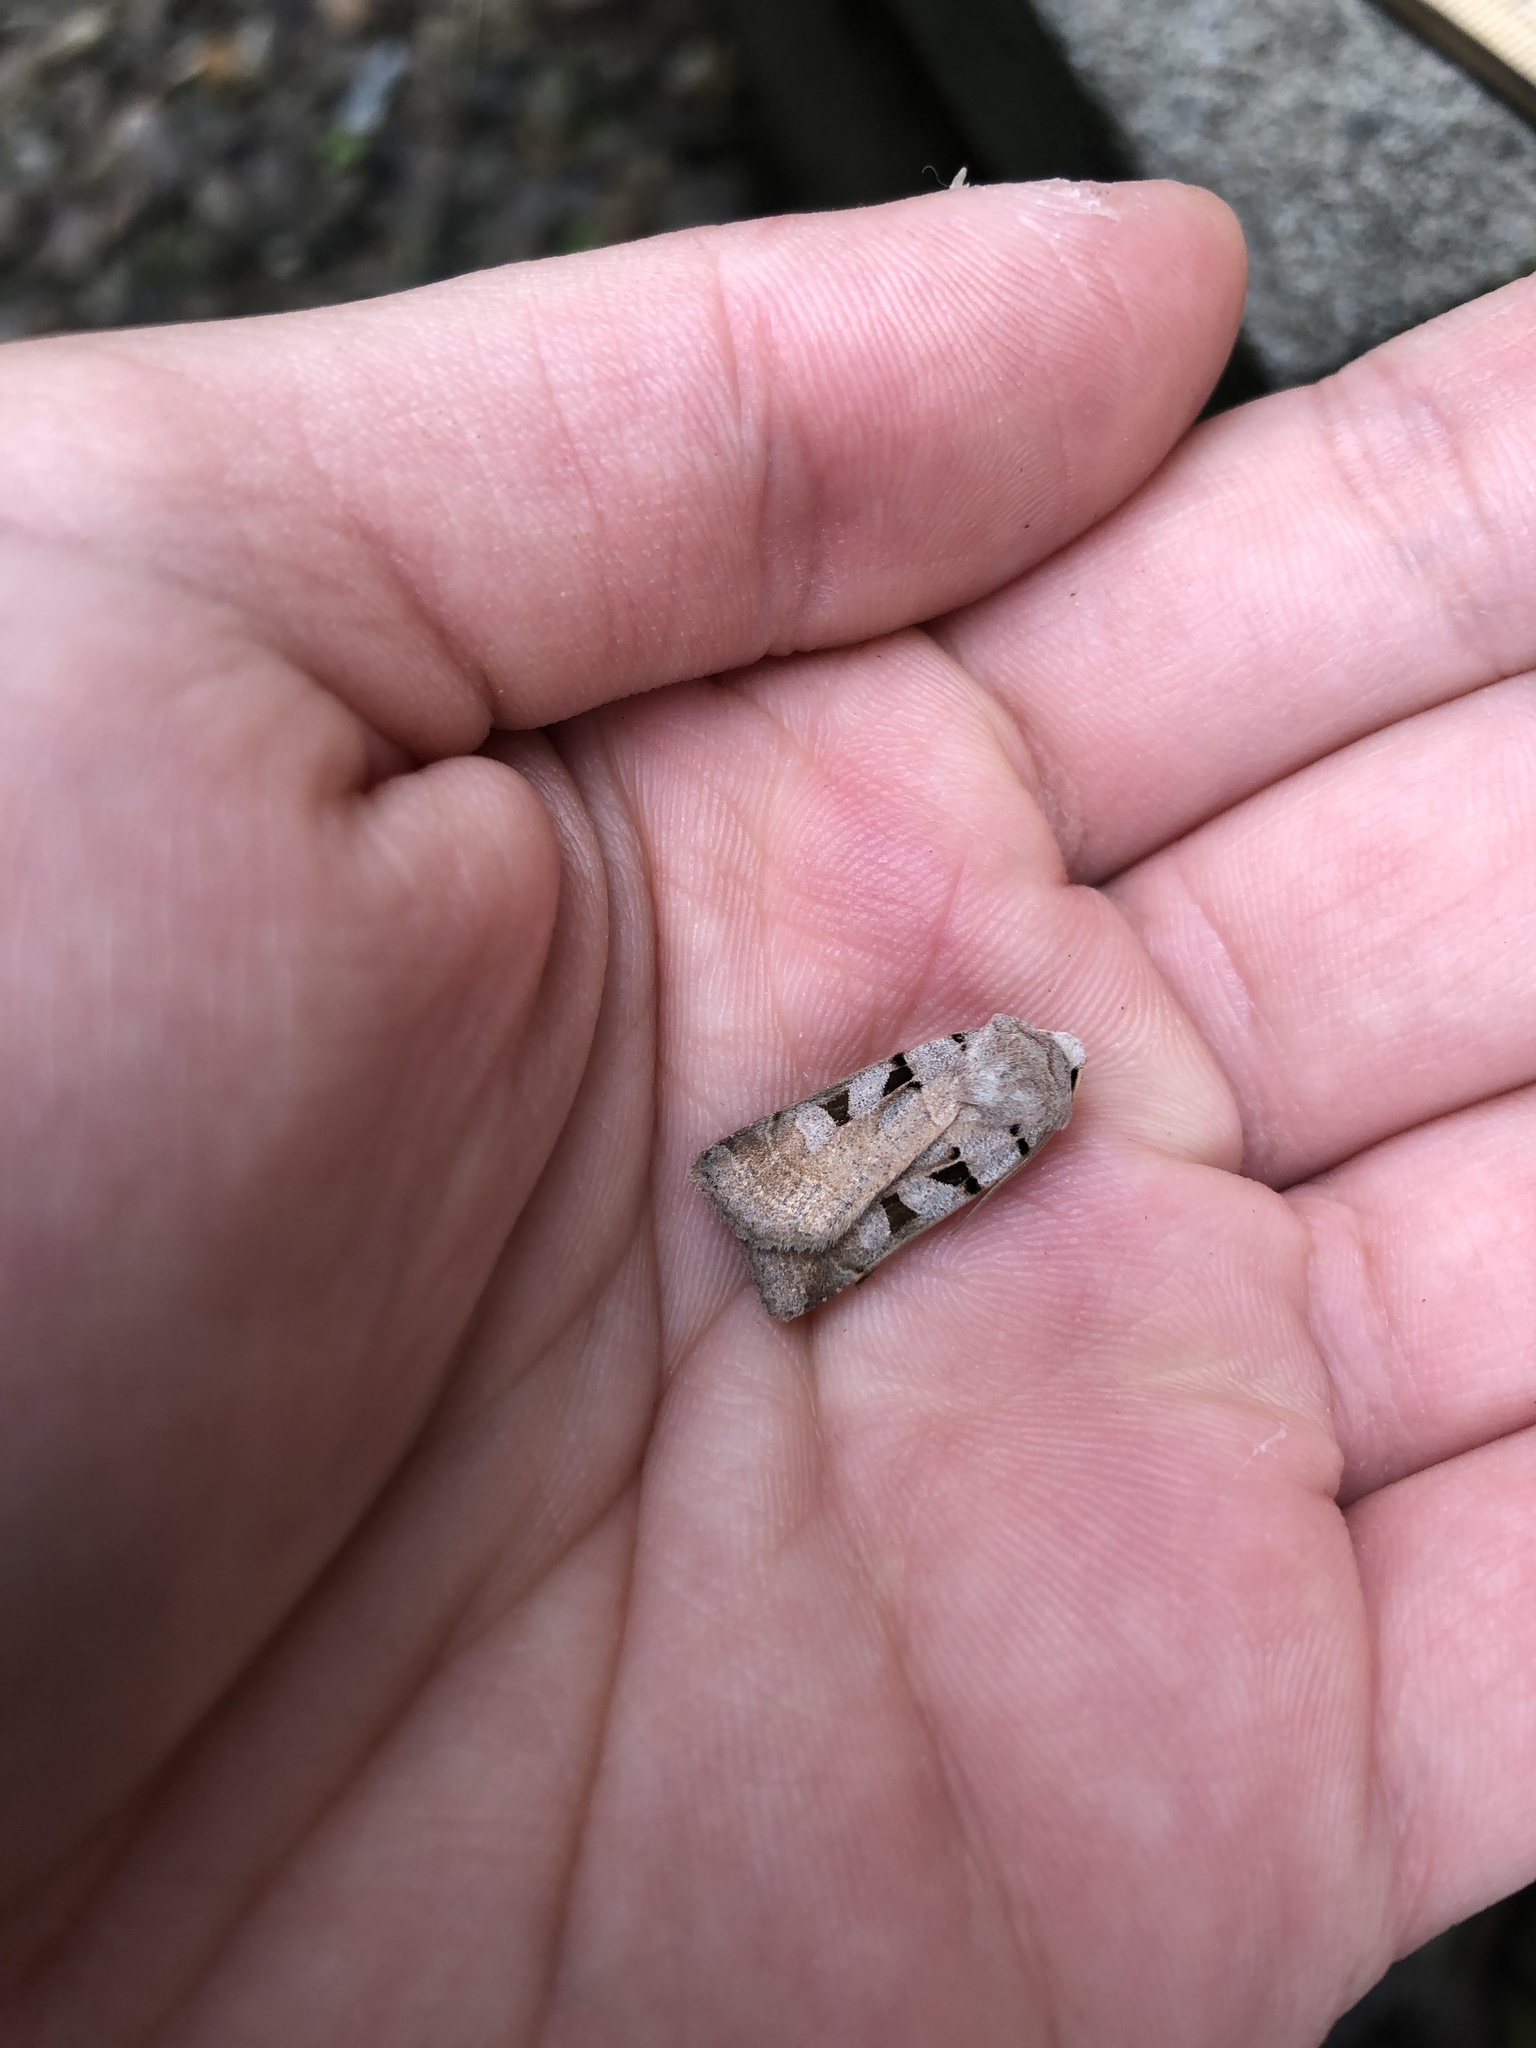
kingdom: Animalia
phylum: Arthropoda
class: Insecta
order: Lepidoptera
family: Noctuidae
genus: Eugnorisma
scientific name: Eugnorisma glareosa
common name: Autumnal rustic
